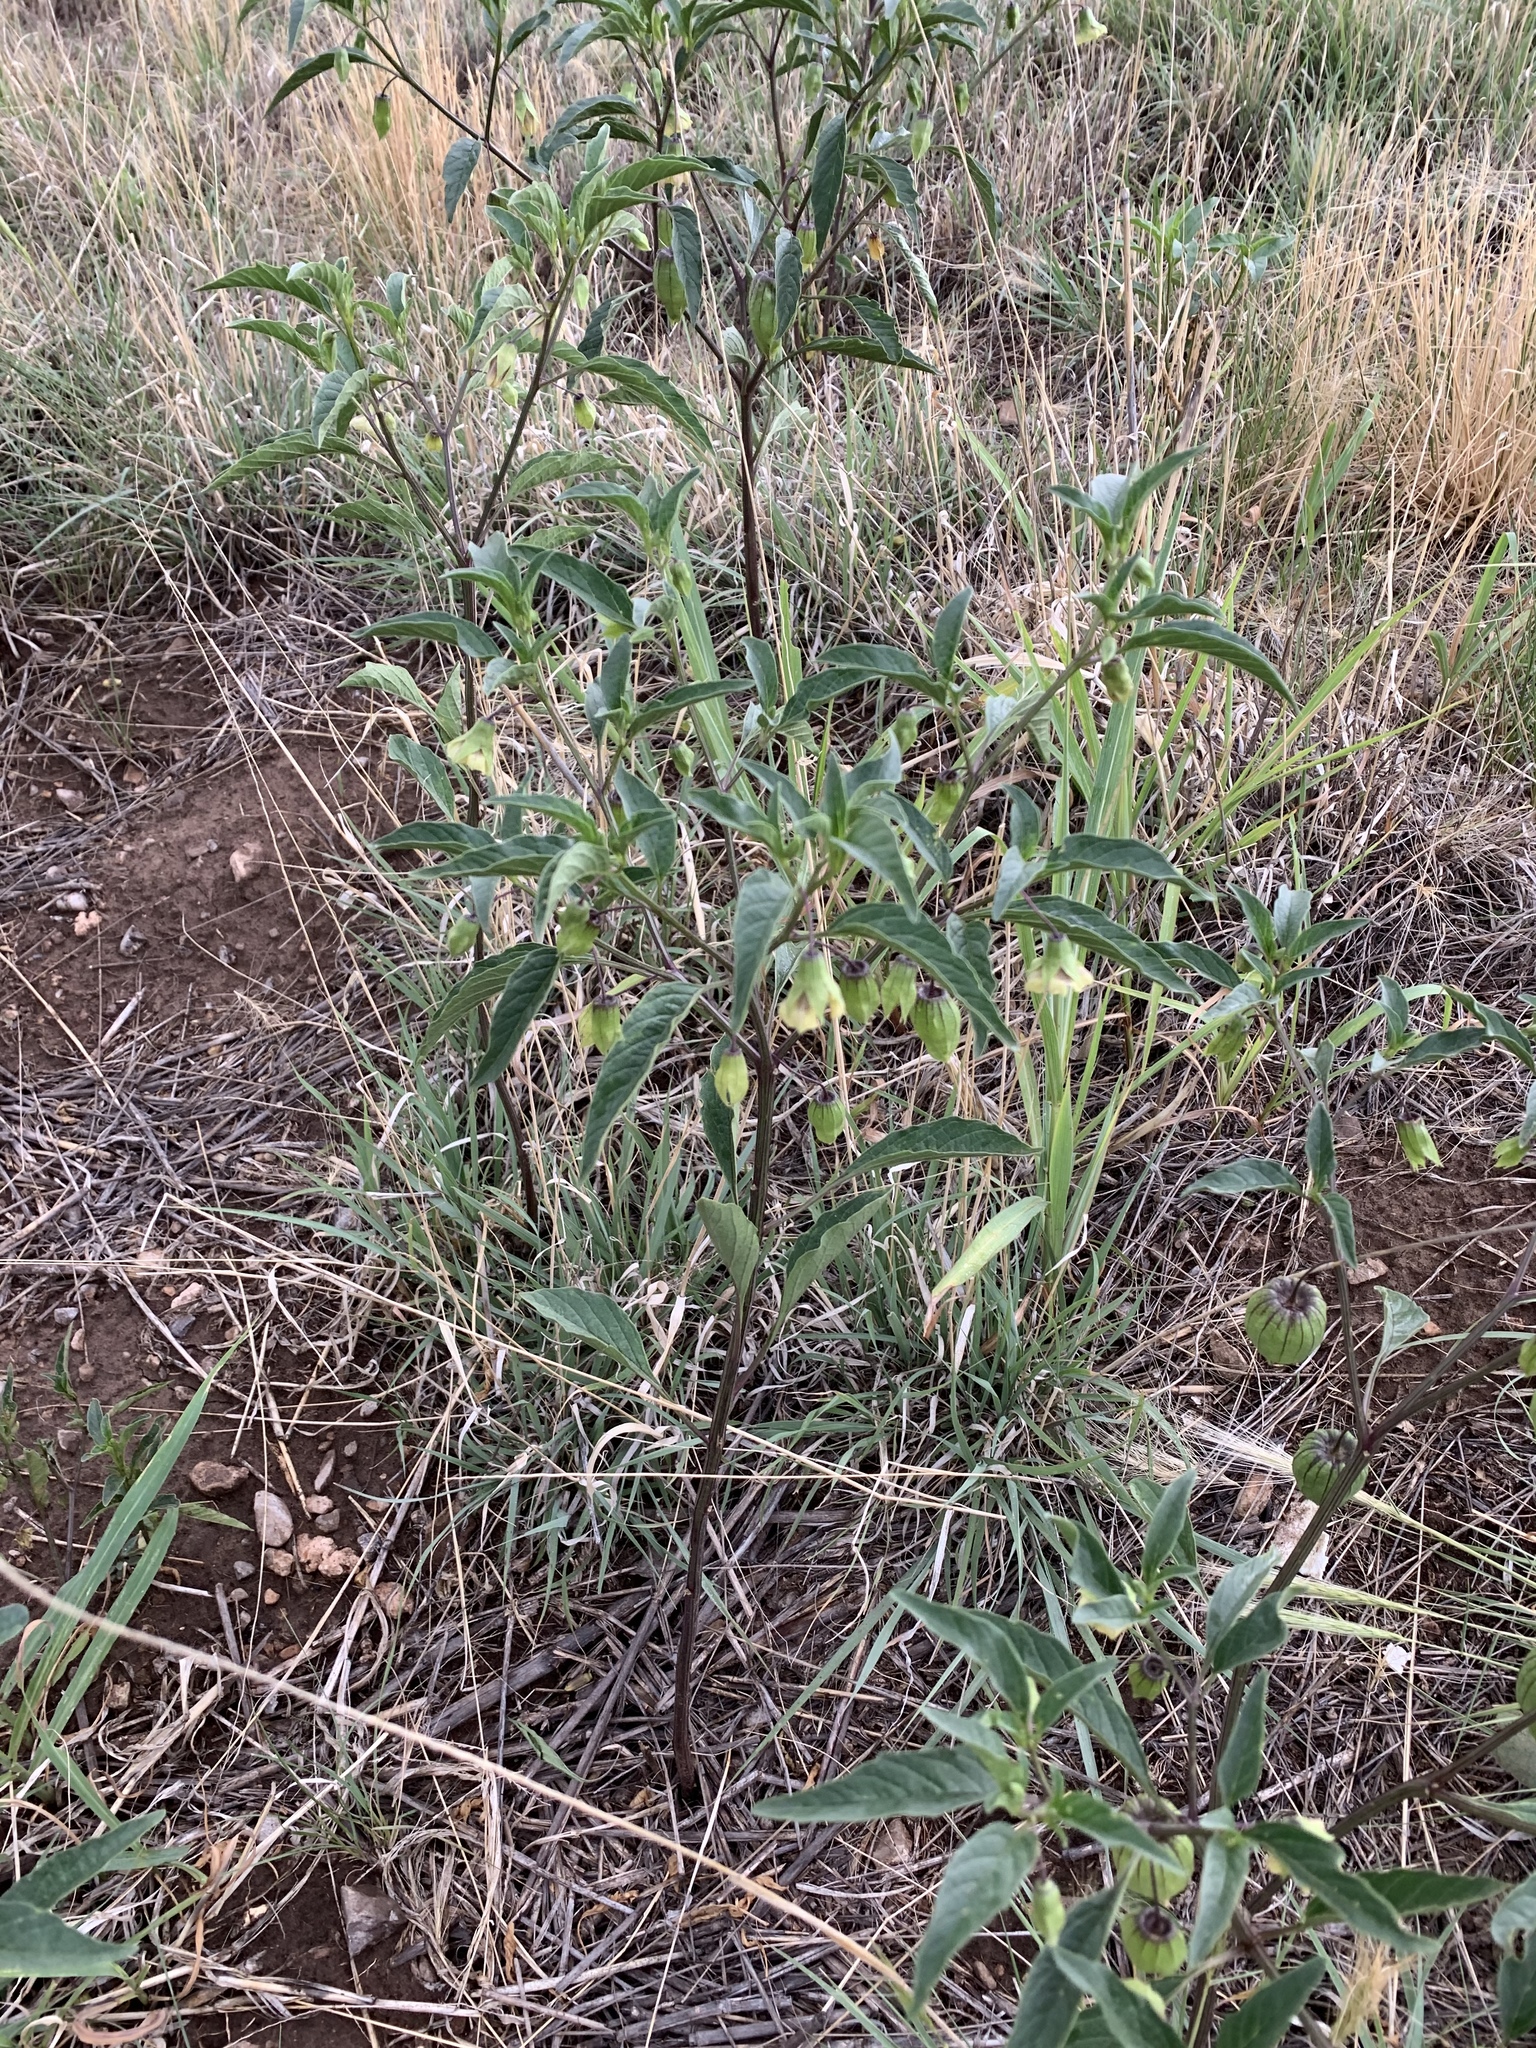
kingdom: Plantae
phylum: Tracheophyta
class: Magnoliopsida
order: Solanales
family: Solanaceae
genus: Physalis
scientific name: Physalis longifolia
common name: Common ground-cherry
